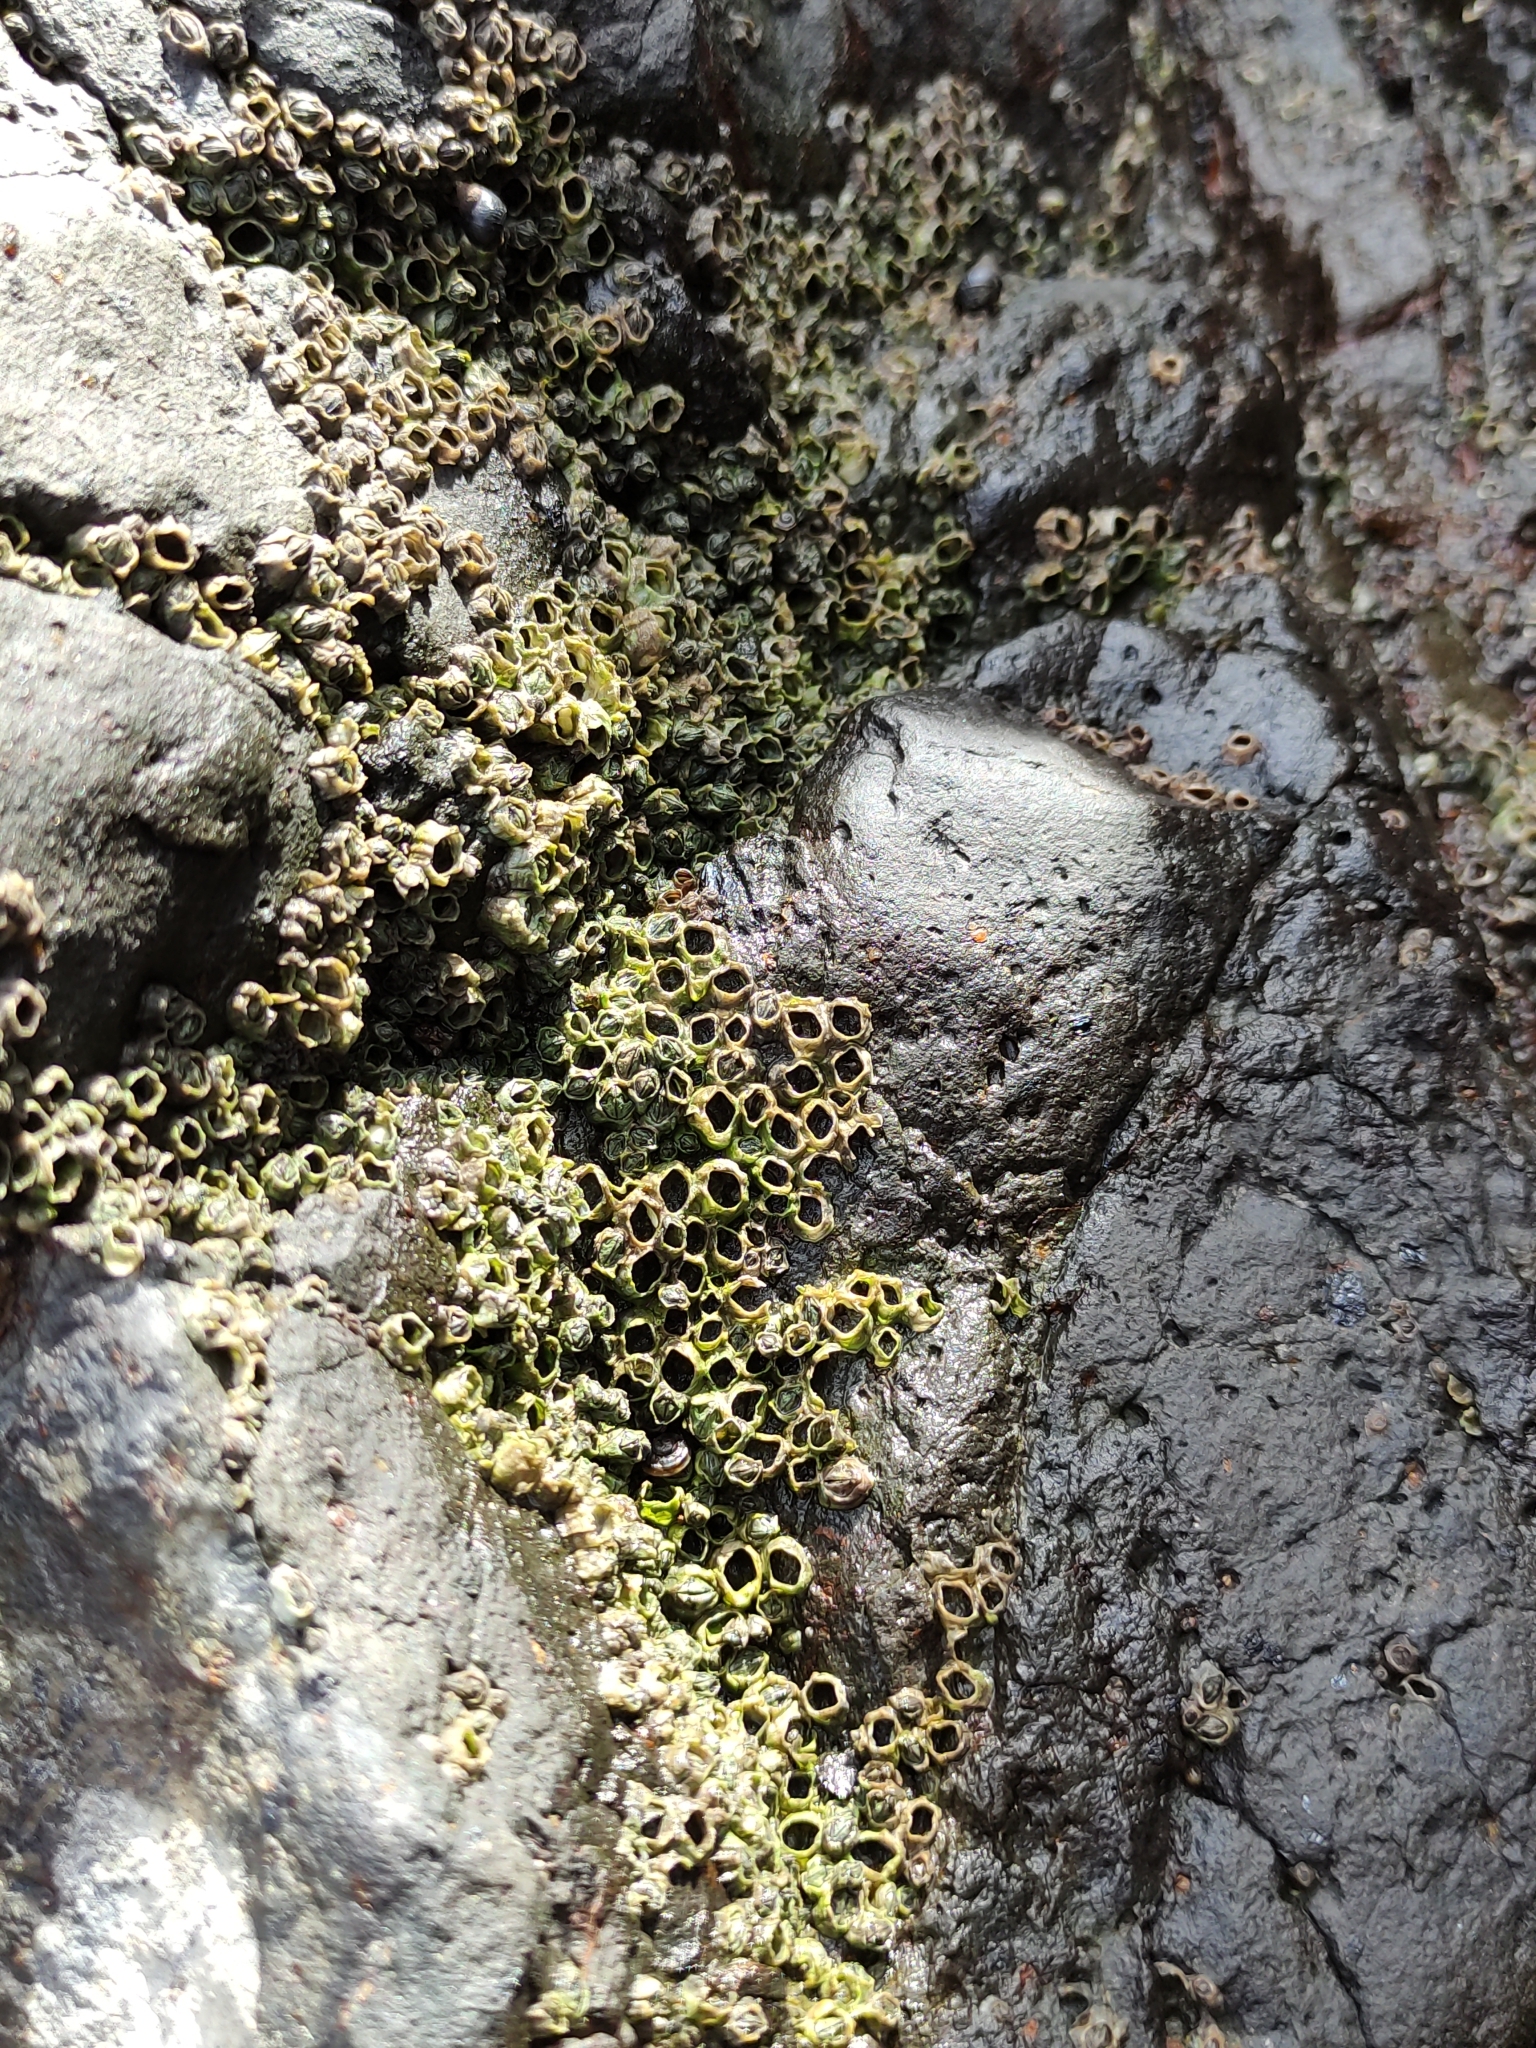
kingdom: Animalia
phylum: Arthropoda
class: Maxillopoda
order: Sessilia
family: Chthamalidae
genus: Chamaesipho
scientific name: Chamaesipho columna
